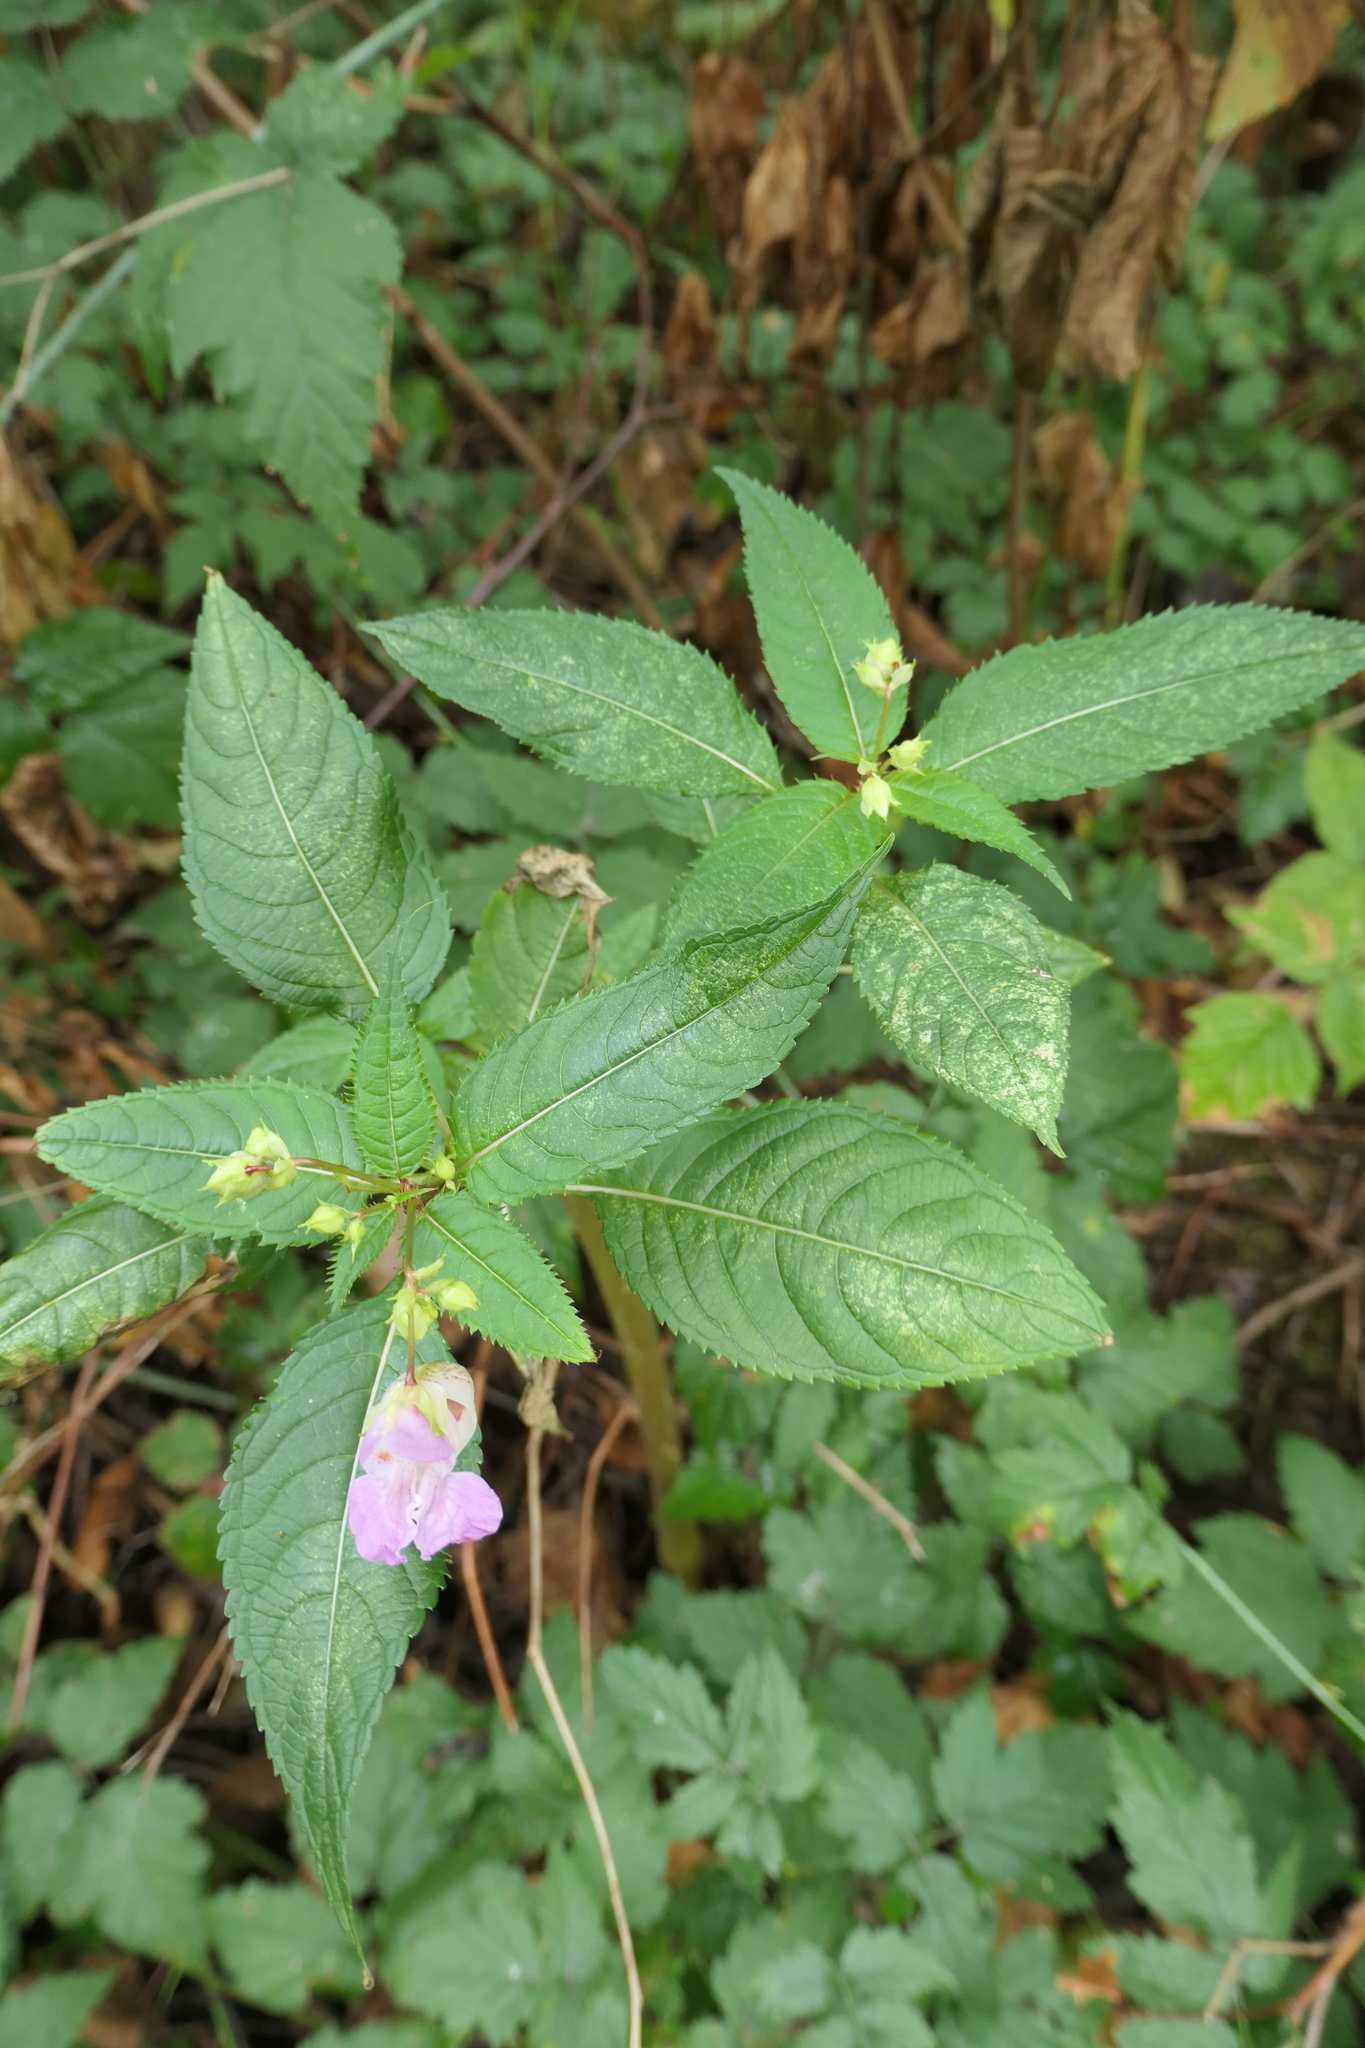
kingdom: Plantae
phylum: Tracheophyta
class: Magnoliopsida
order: Ericales
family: Balsaminaceae
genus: Impatiens
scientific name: Impatiens glandulifera
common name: Himalayan balsam
